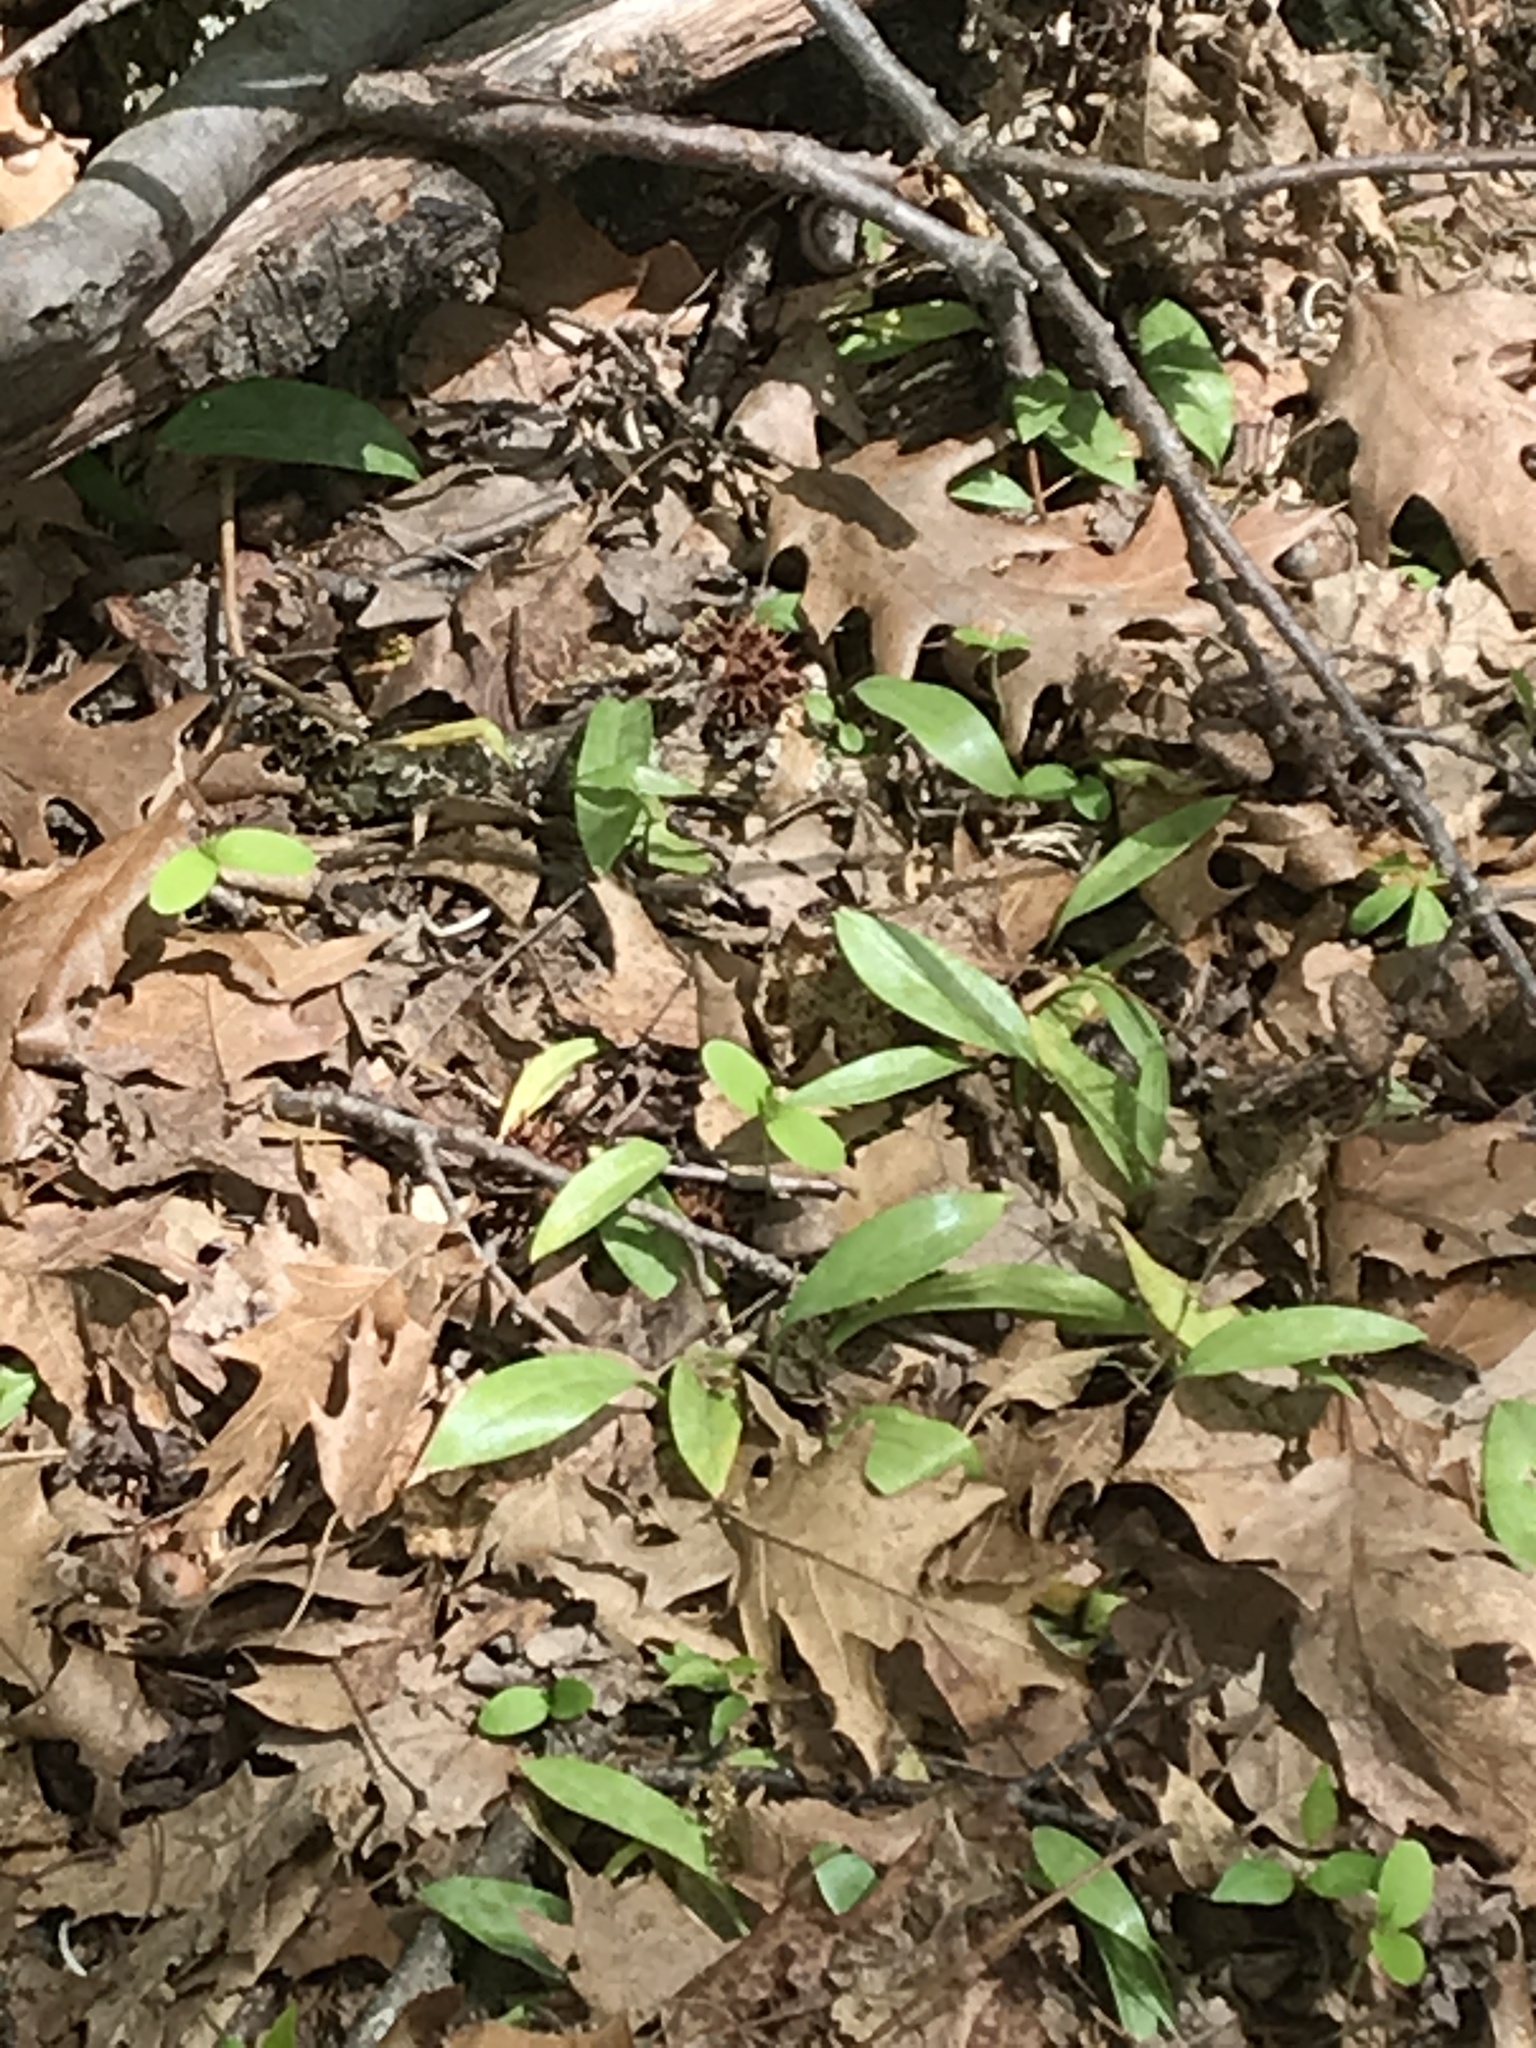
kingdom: Plantae
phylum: Tracheophyta
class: Liliopsida
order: Liliales
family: Liliaceae
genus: Erythronium
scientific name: Erythronium americanum
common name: Yellow adder's-tongue
